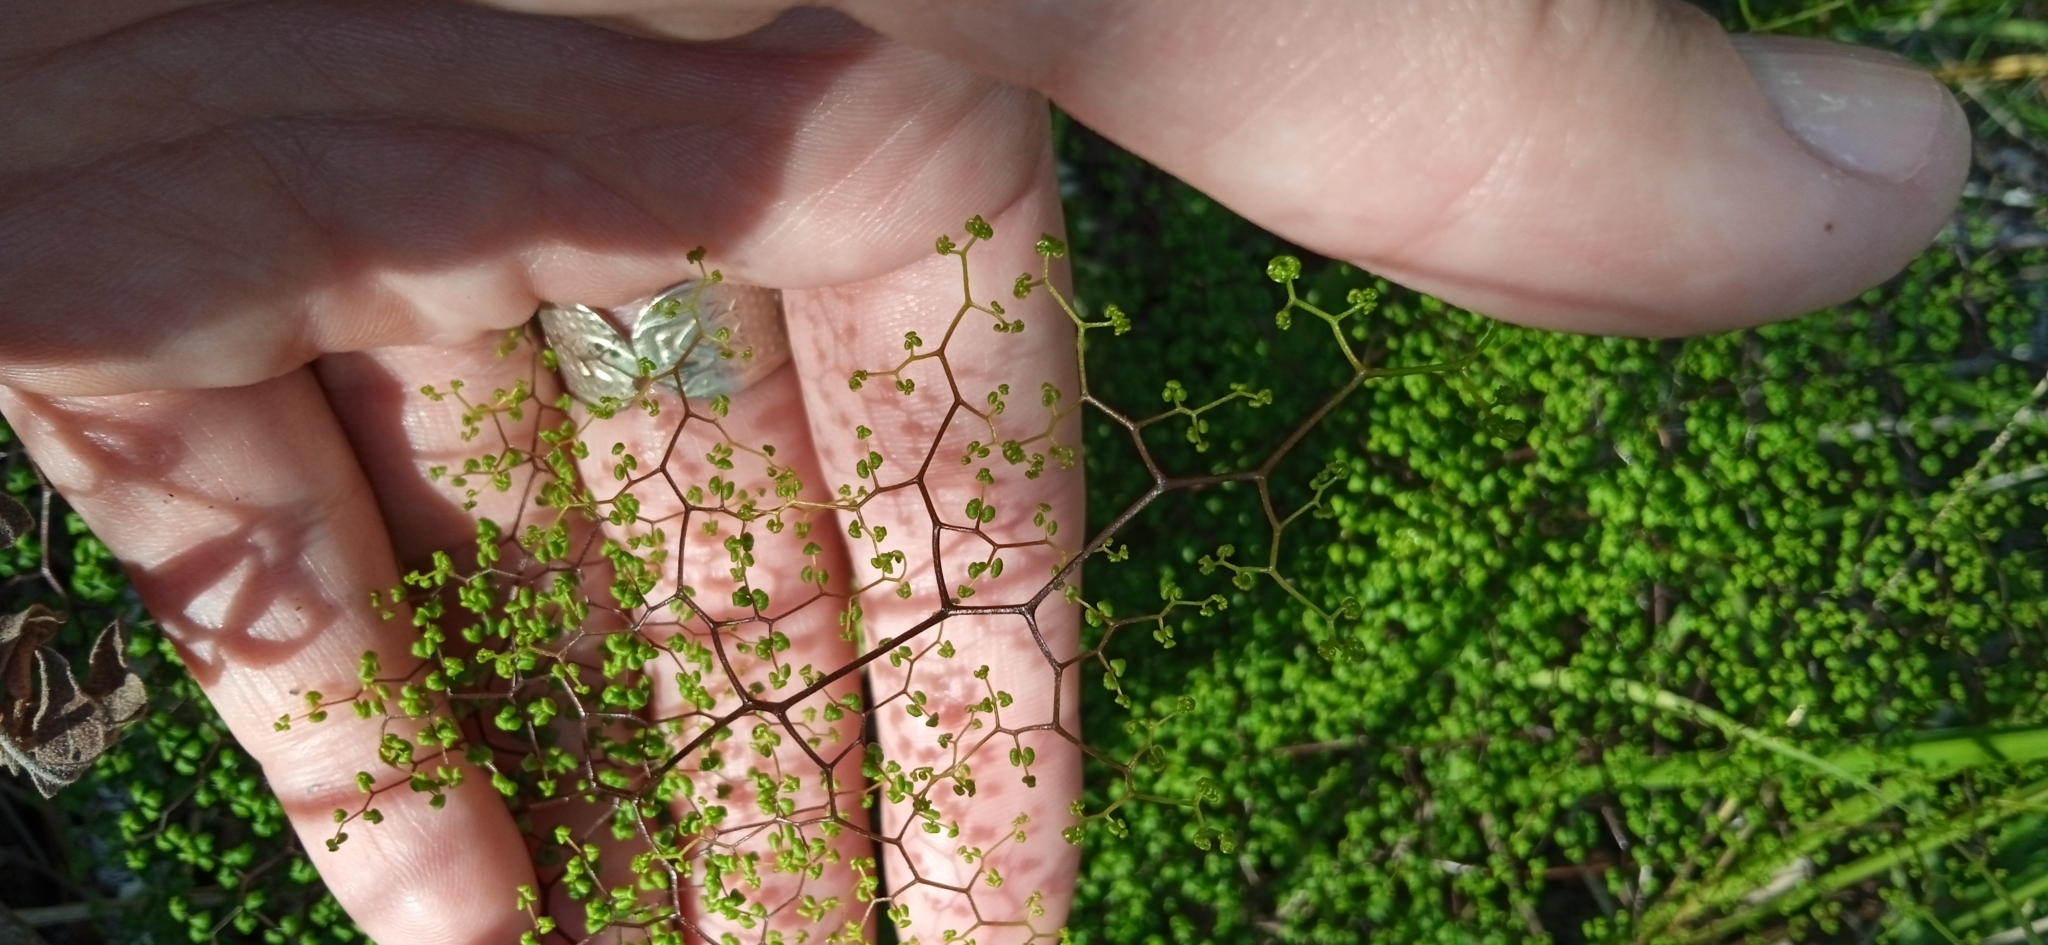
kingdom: Plantae
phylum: Tracheophyta
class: Polypodiopsida
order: Polypodiales
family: Pteridaceae
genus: Adiantopsis
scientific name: Adiantopsis dichotoma
